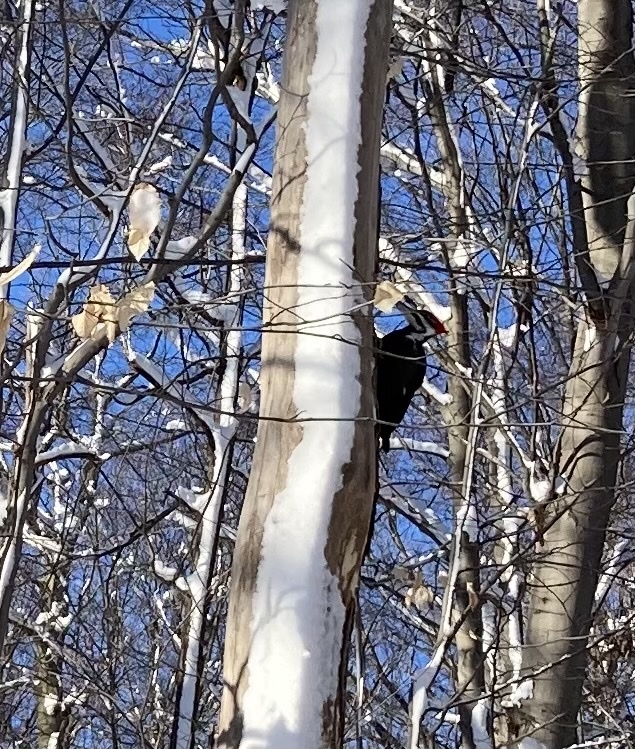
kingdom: Animalia
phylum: Chordata
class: Aves
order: Piciformes
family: Picidae
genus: Dryocopus
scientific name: Dryocopus pileatus
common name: Pileated woodpecker
